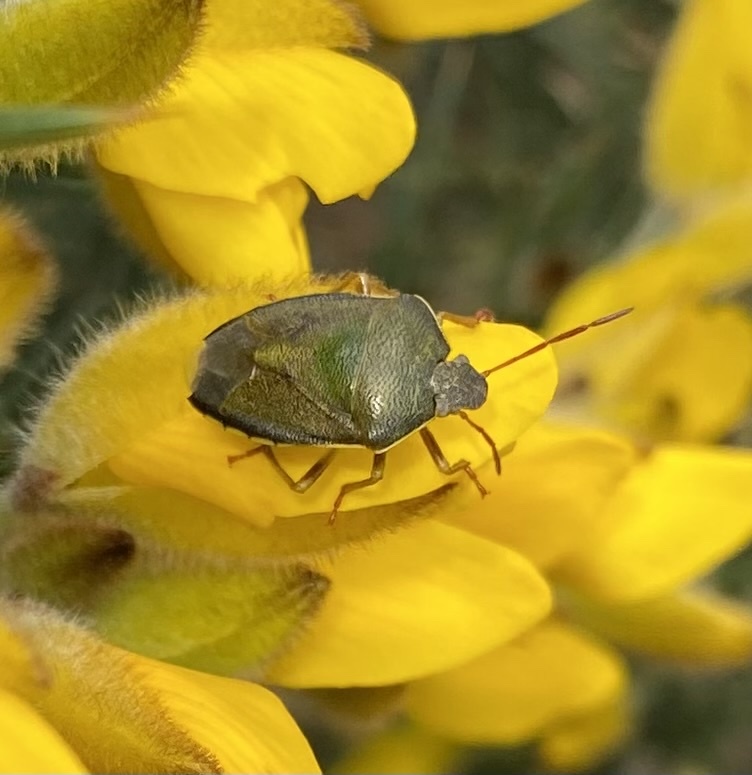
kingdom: Animalia
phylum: Arthropoda
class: Insecta
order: Hemiptera
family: Pentatomidae
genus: Piezodorus
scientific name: Piezodorus lituratus
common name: Stink bug
